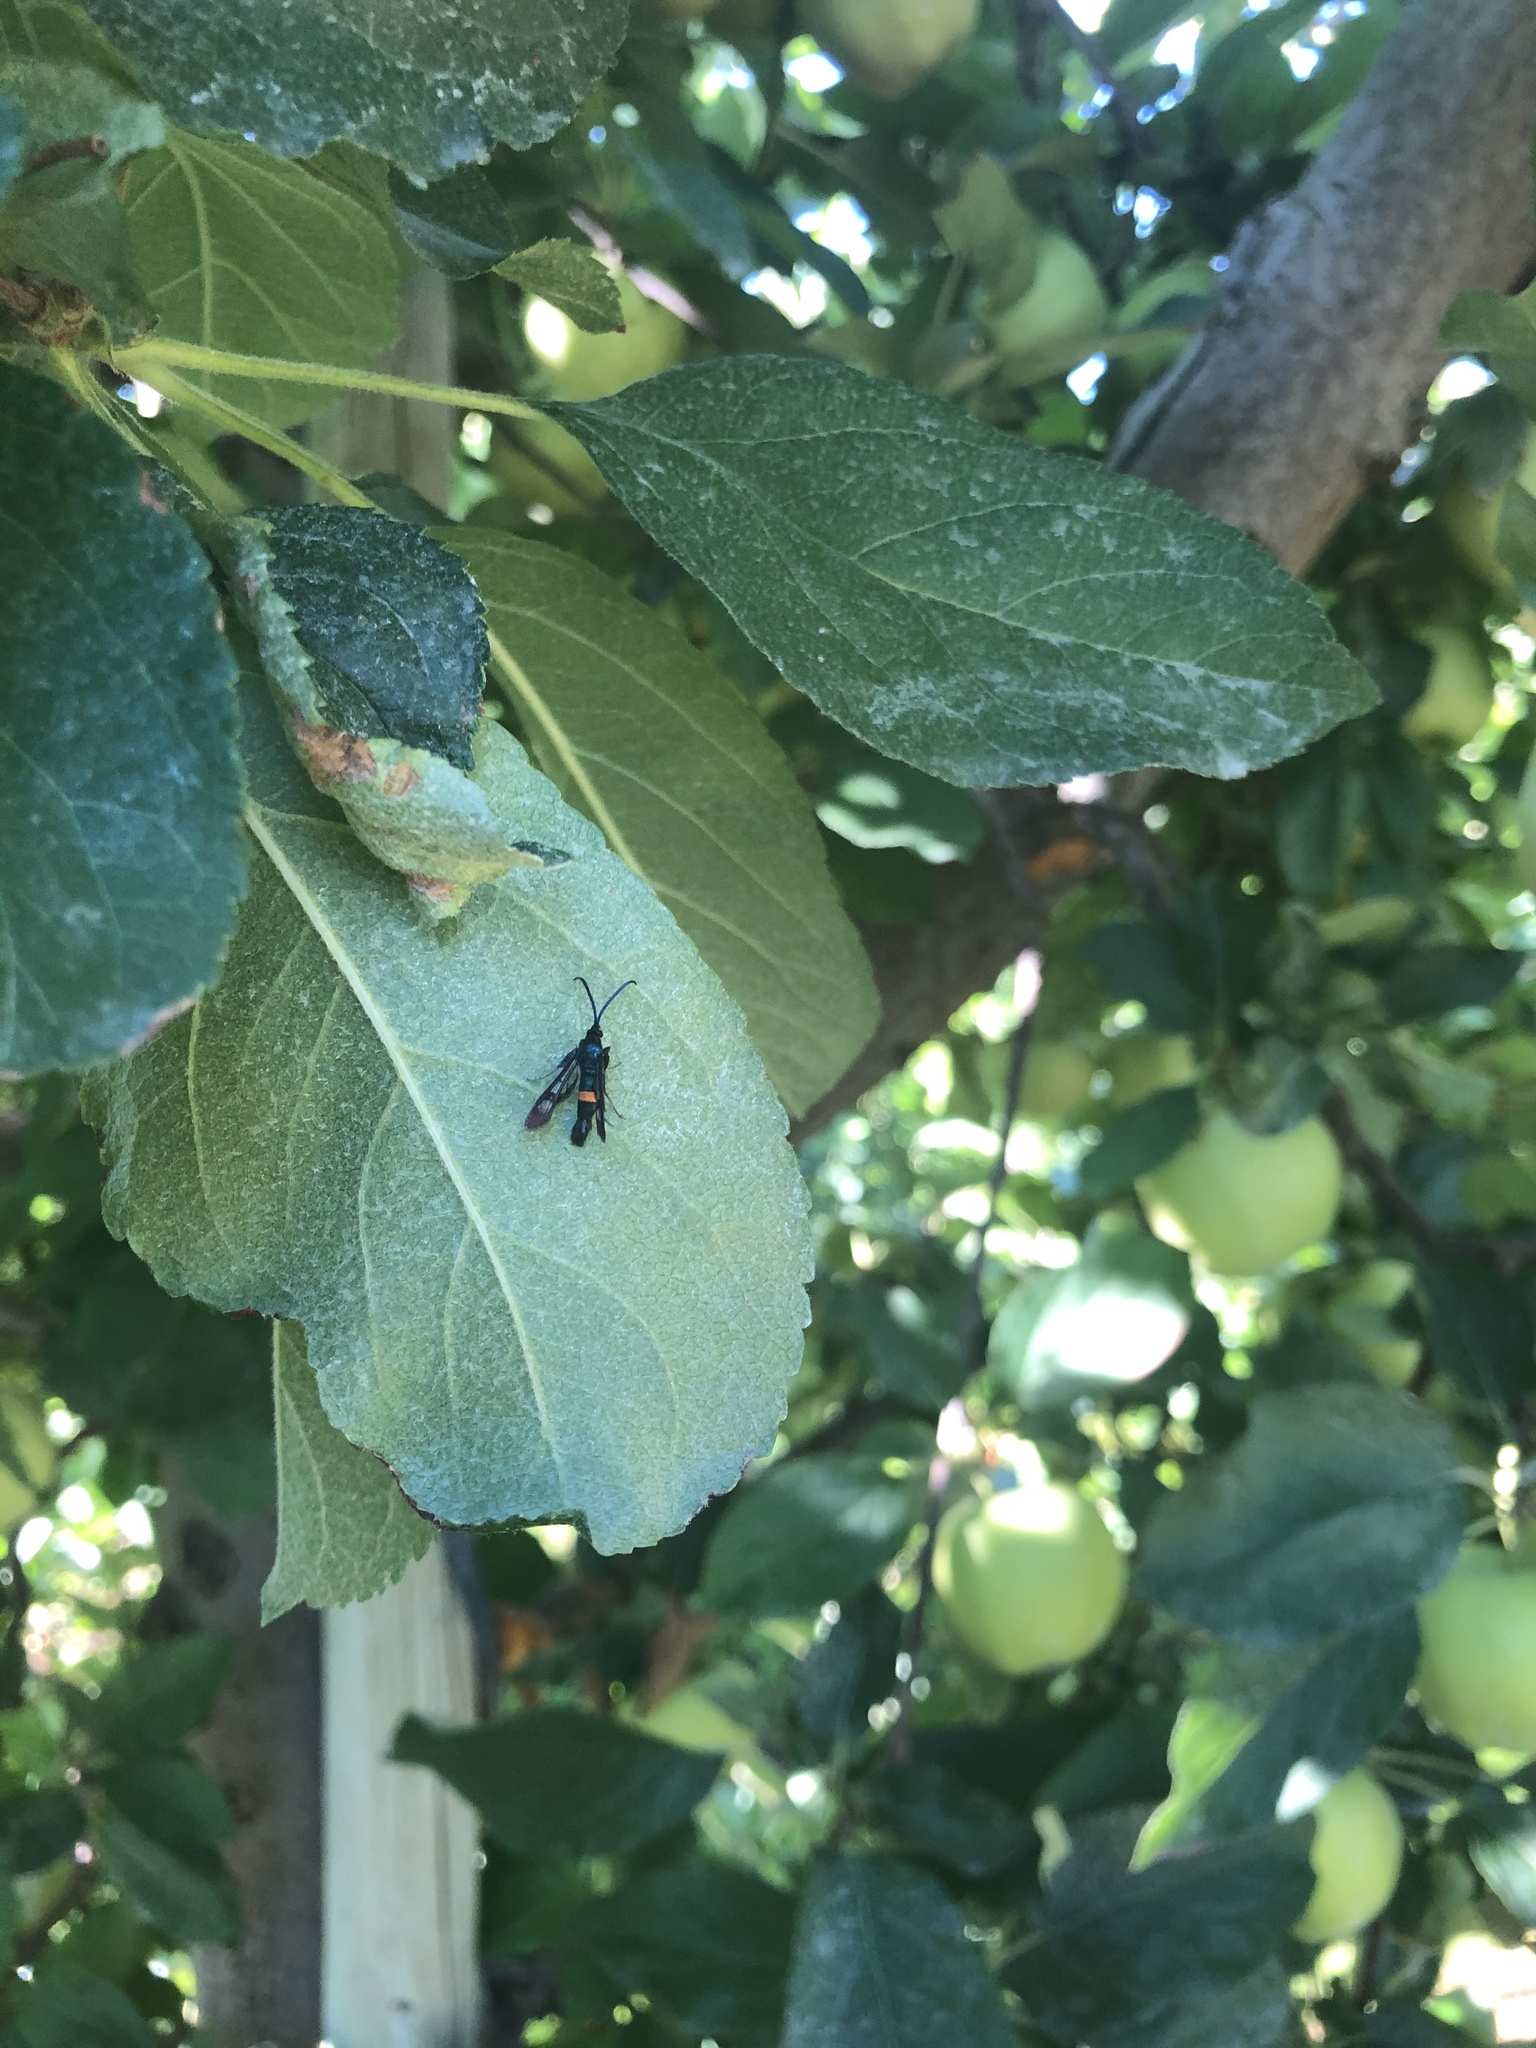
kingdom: Animalia
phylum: Arthropoda
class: Insecta
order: Lepidoptera
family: Sesiidae
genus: Synanthedon
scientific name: Synanthedon myopaeformis
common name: Red-belted clearwing
